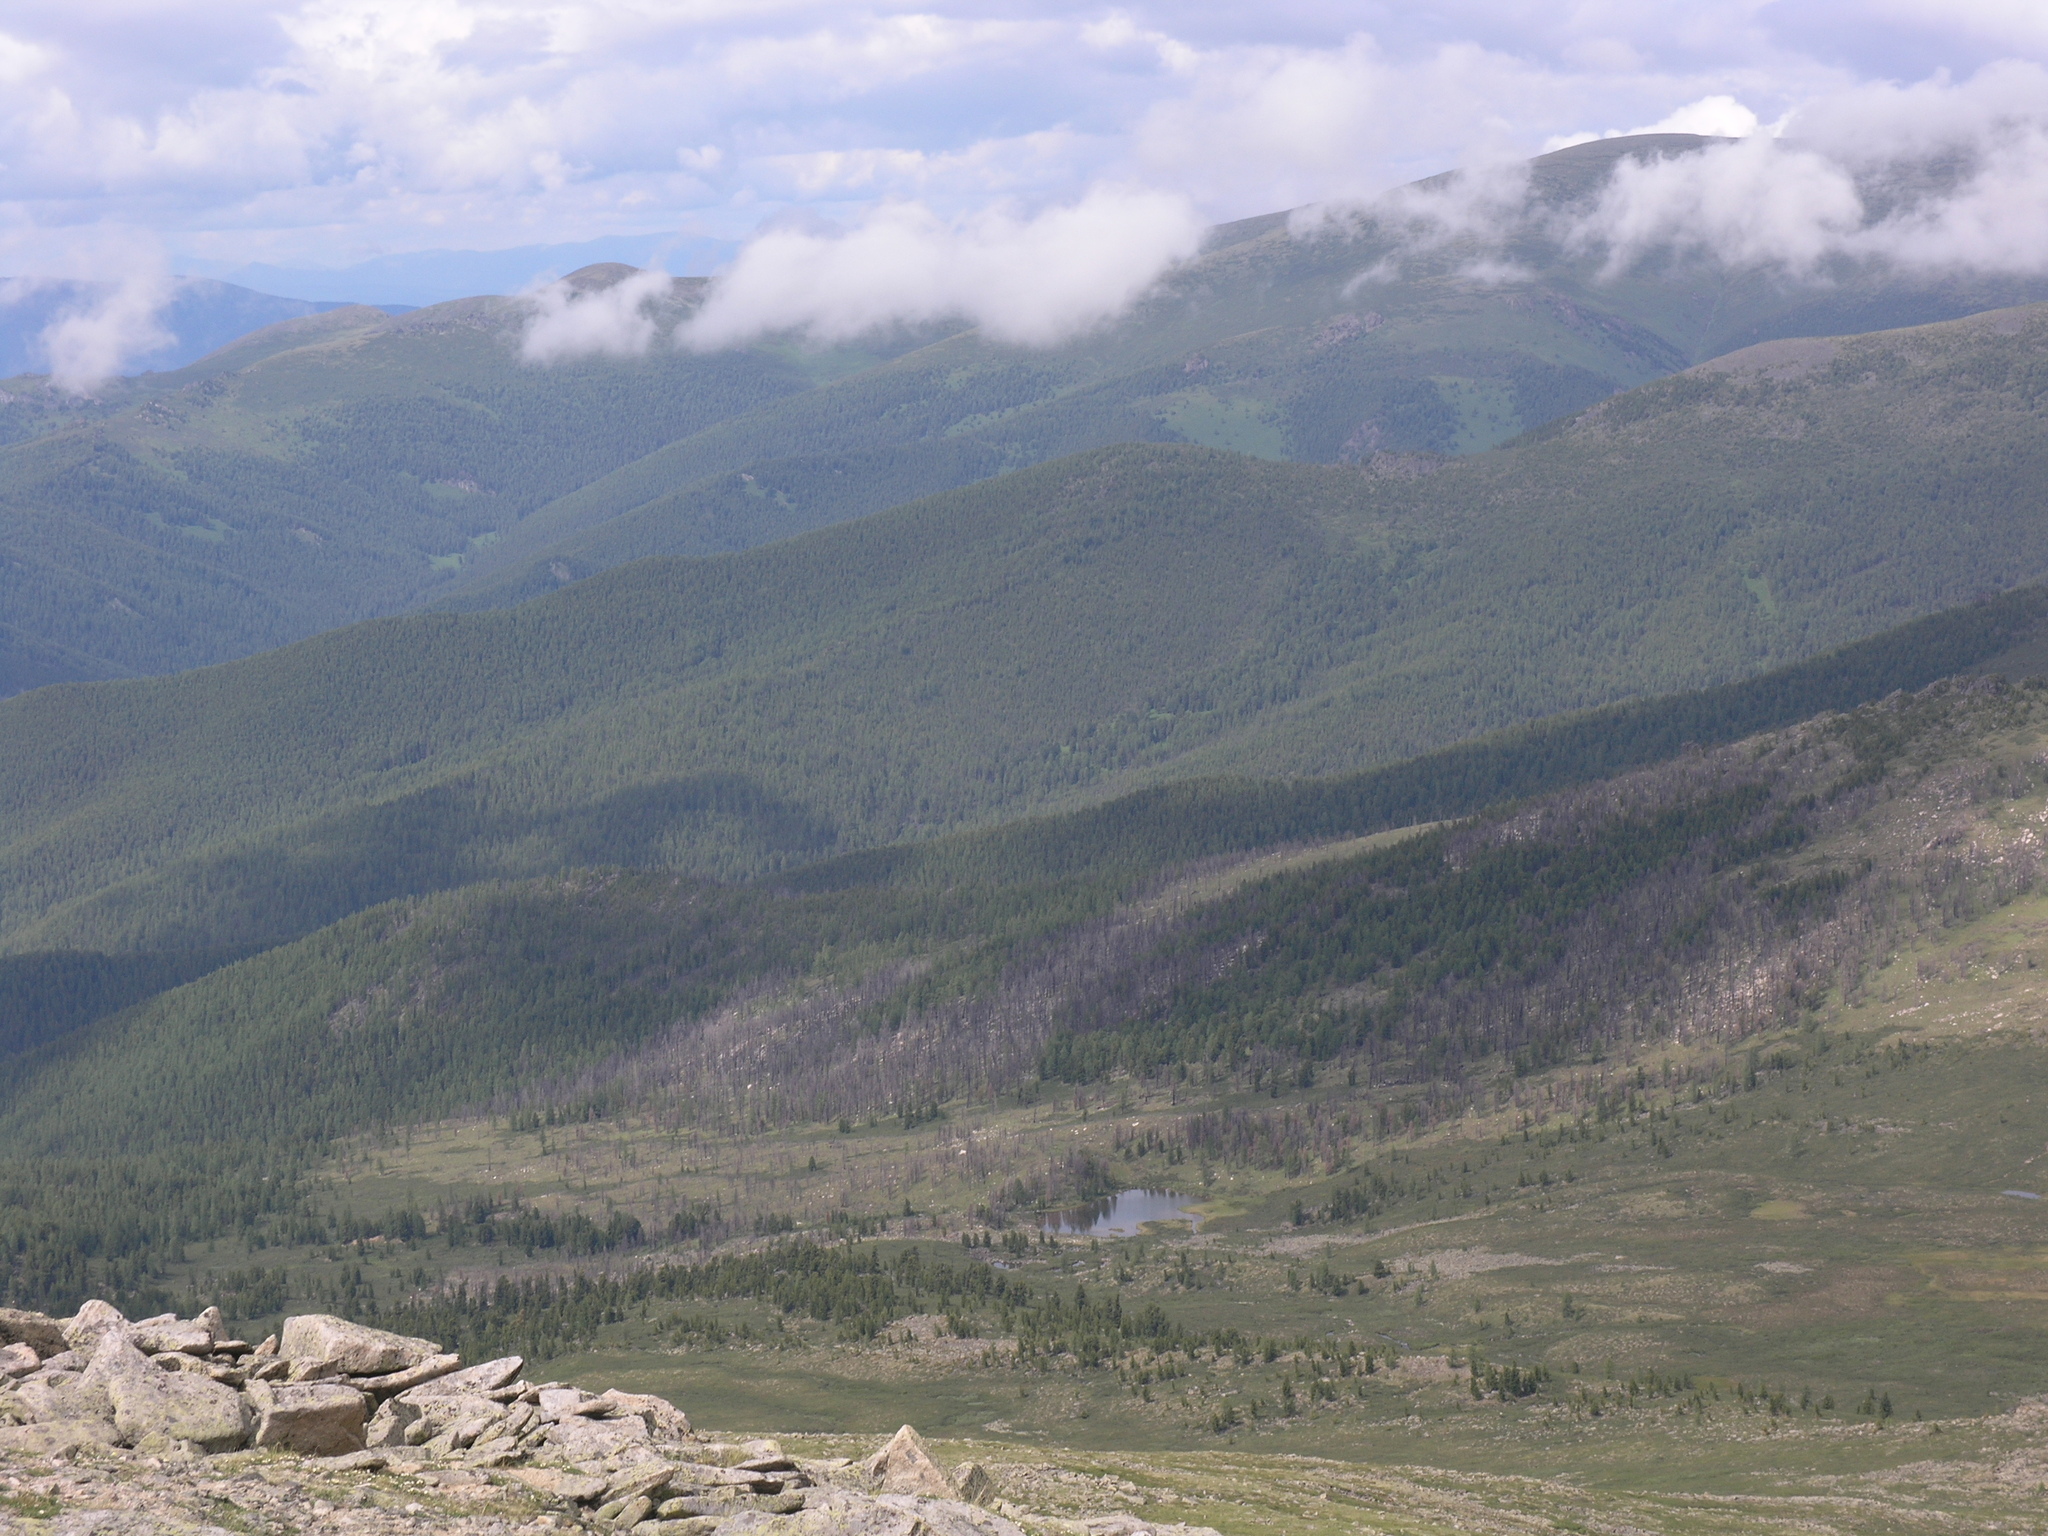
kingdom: Plantae
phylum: Tracheophyta
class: Pinopsida
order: Pinales
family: Pinaceae
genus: Pinus
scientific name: Pinus sibirica
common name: Siberian pine
